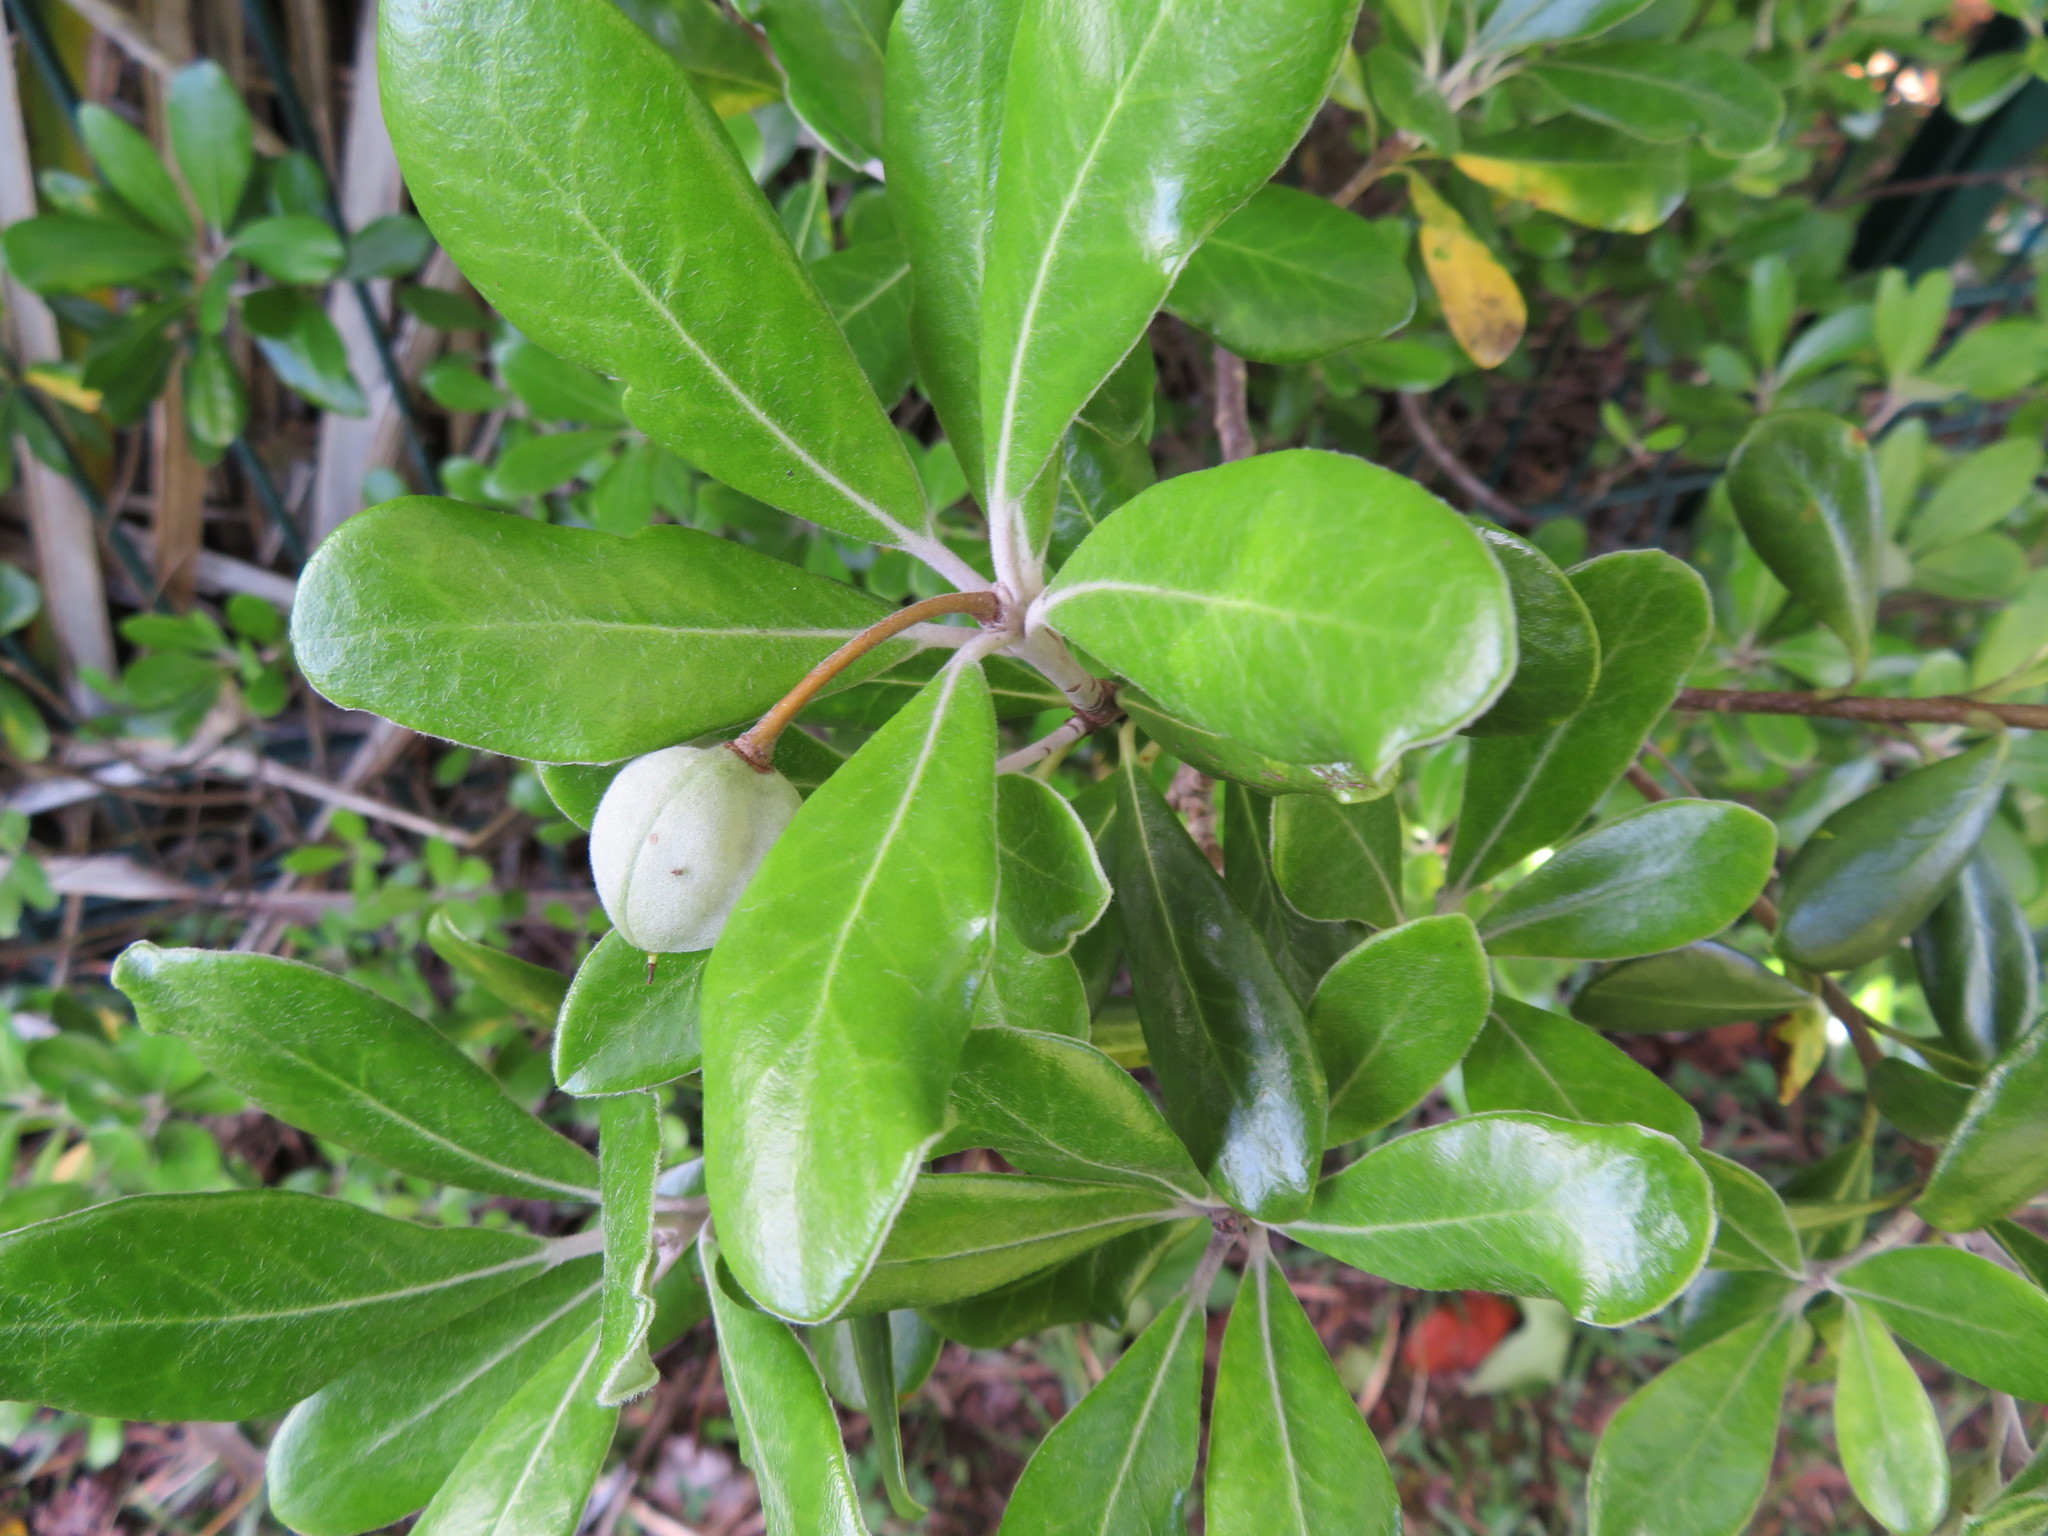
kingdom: Plantae
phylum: Tracheophyta
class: Magnoliopsida
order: Apiales
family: Pittosporaceae
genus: Pittosporum
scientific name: Pittosporum crassifolium
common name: Karo
